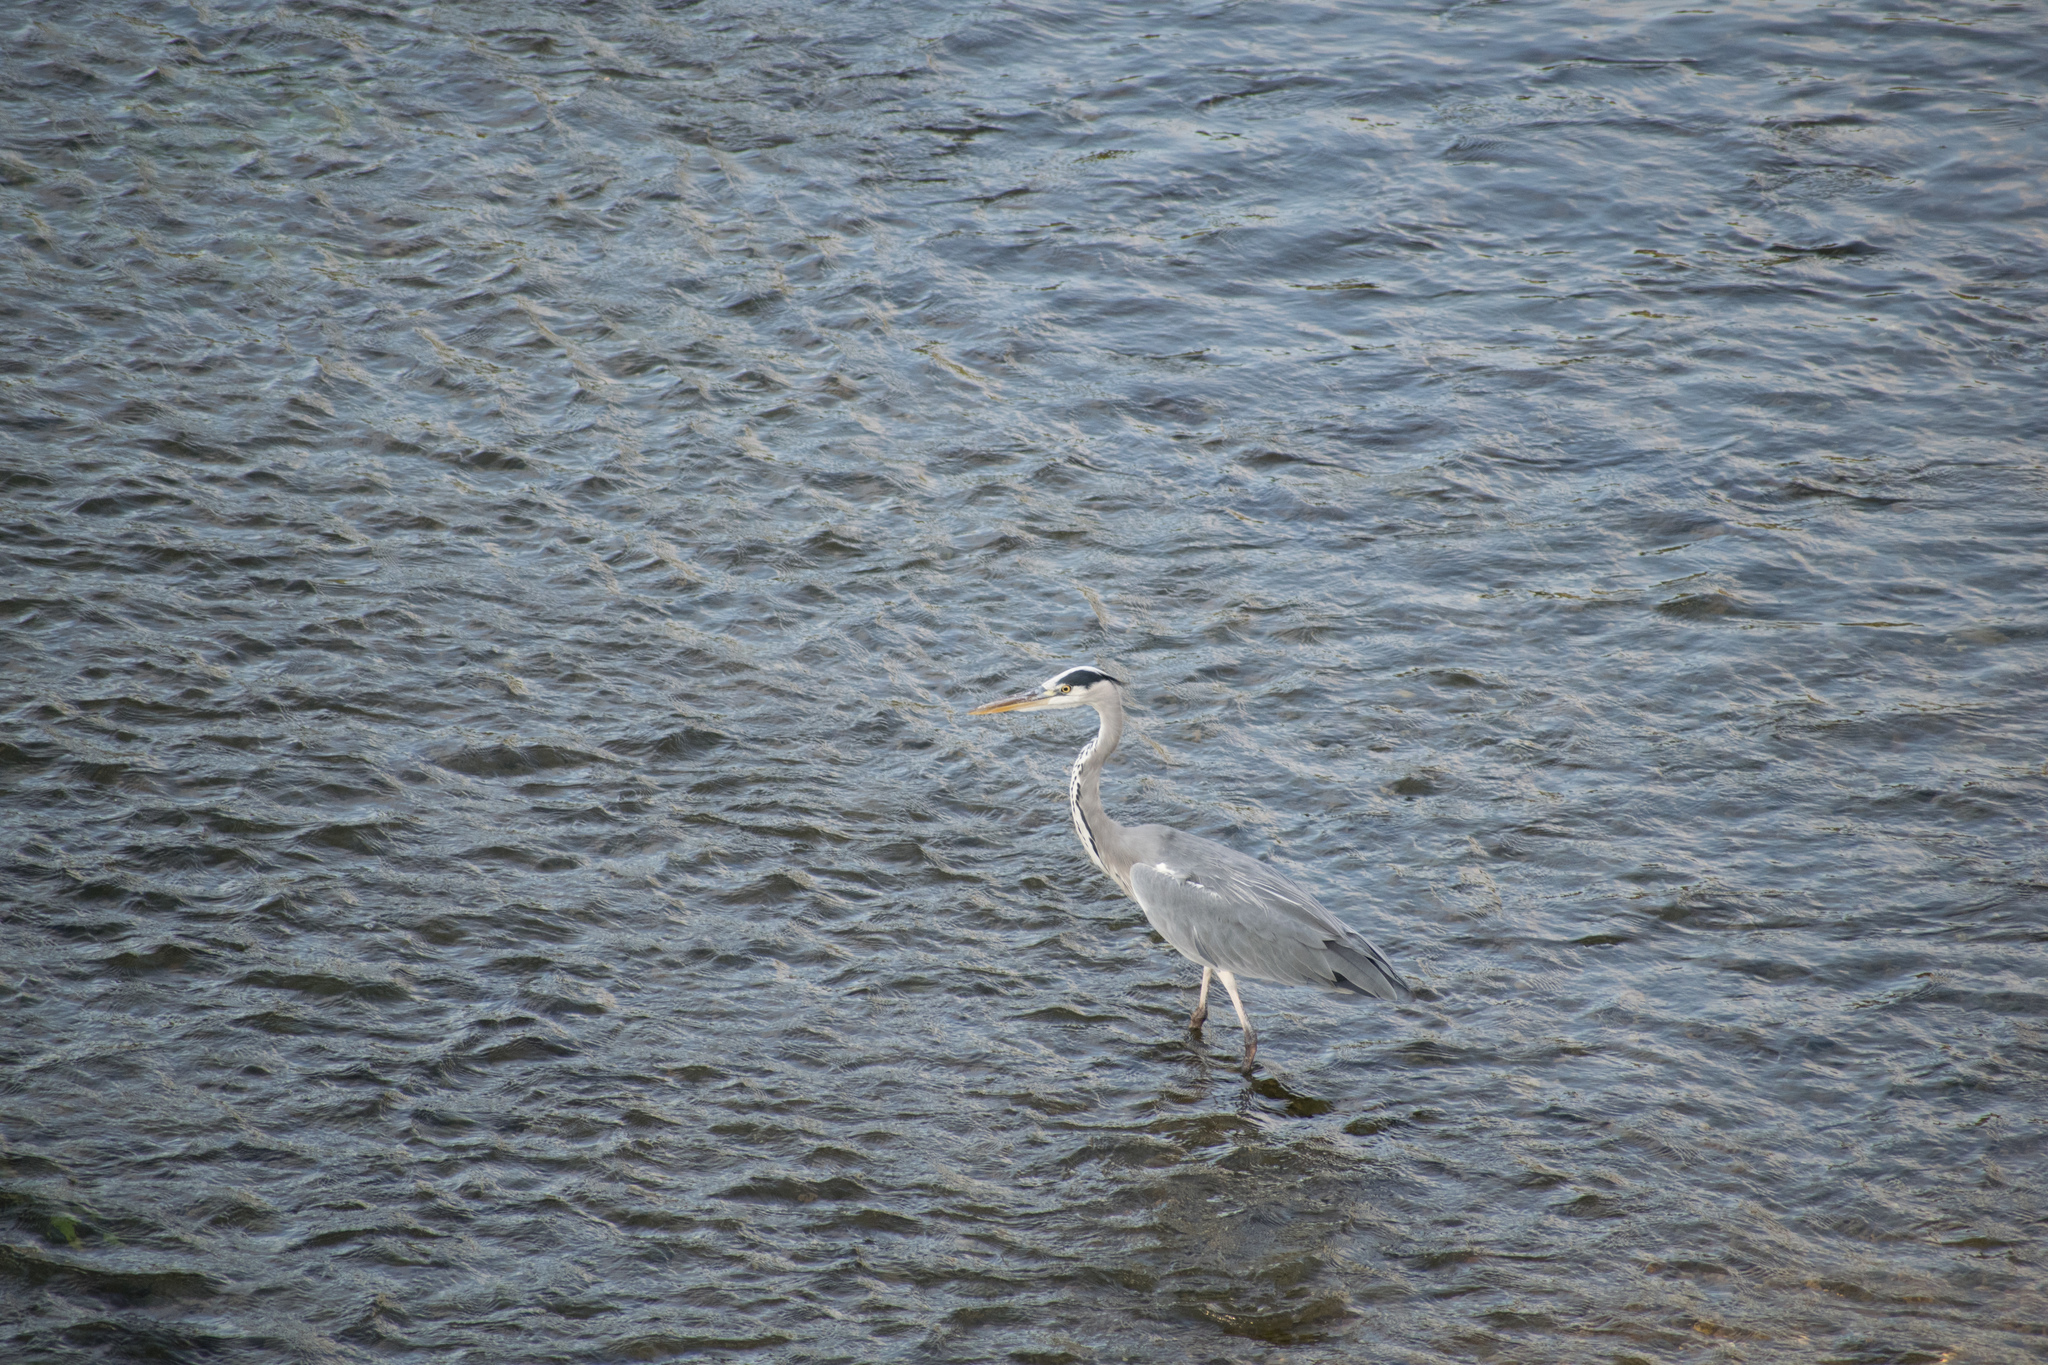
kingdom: Animalia
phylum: Chordata
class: Aves
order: Pelecaniformes
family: Ardeidae
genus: Ardea
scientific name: Ardea cinerea
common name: Grey heron
